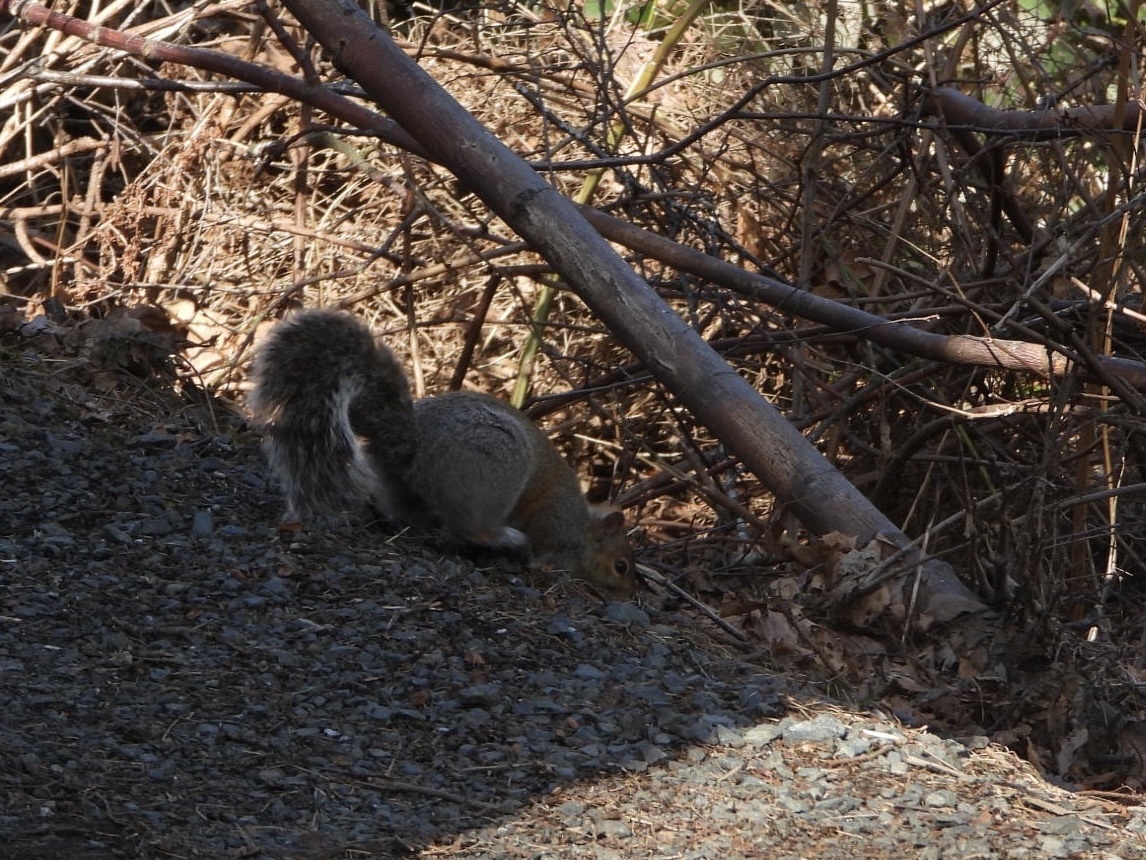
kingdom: Animalia
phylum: Chordata
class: Mammalia
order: Rodentia
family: Sciuridae
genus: Sciurus
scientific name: Sciurus carolinensis
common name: Eastern gray squirrel
